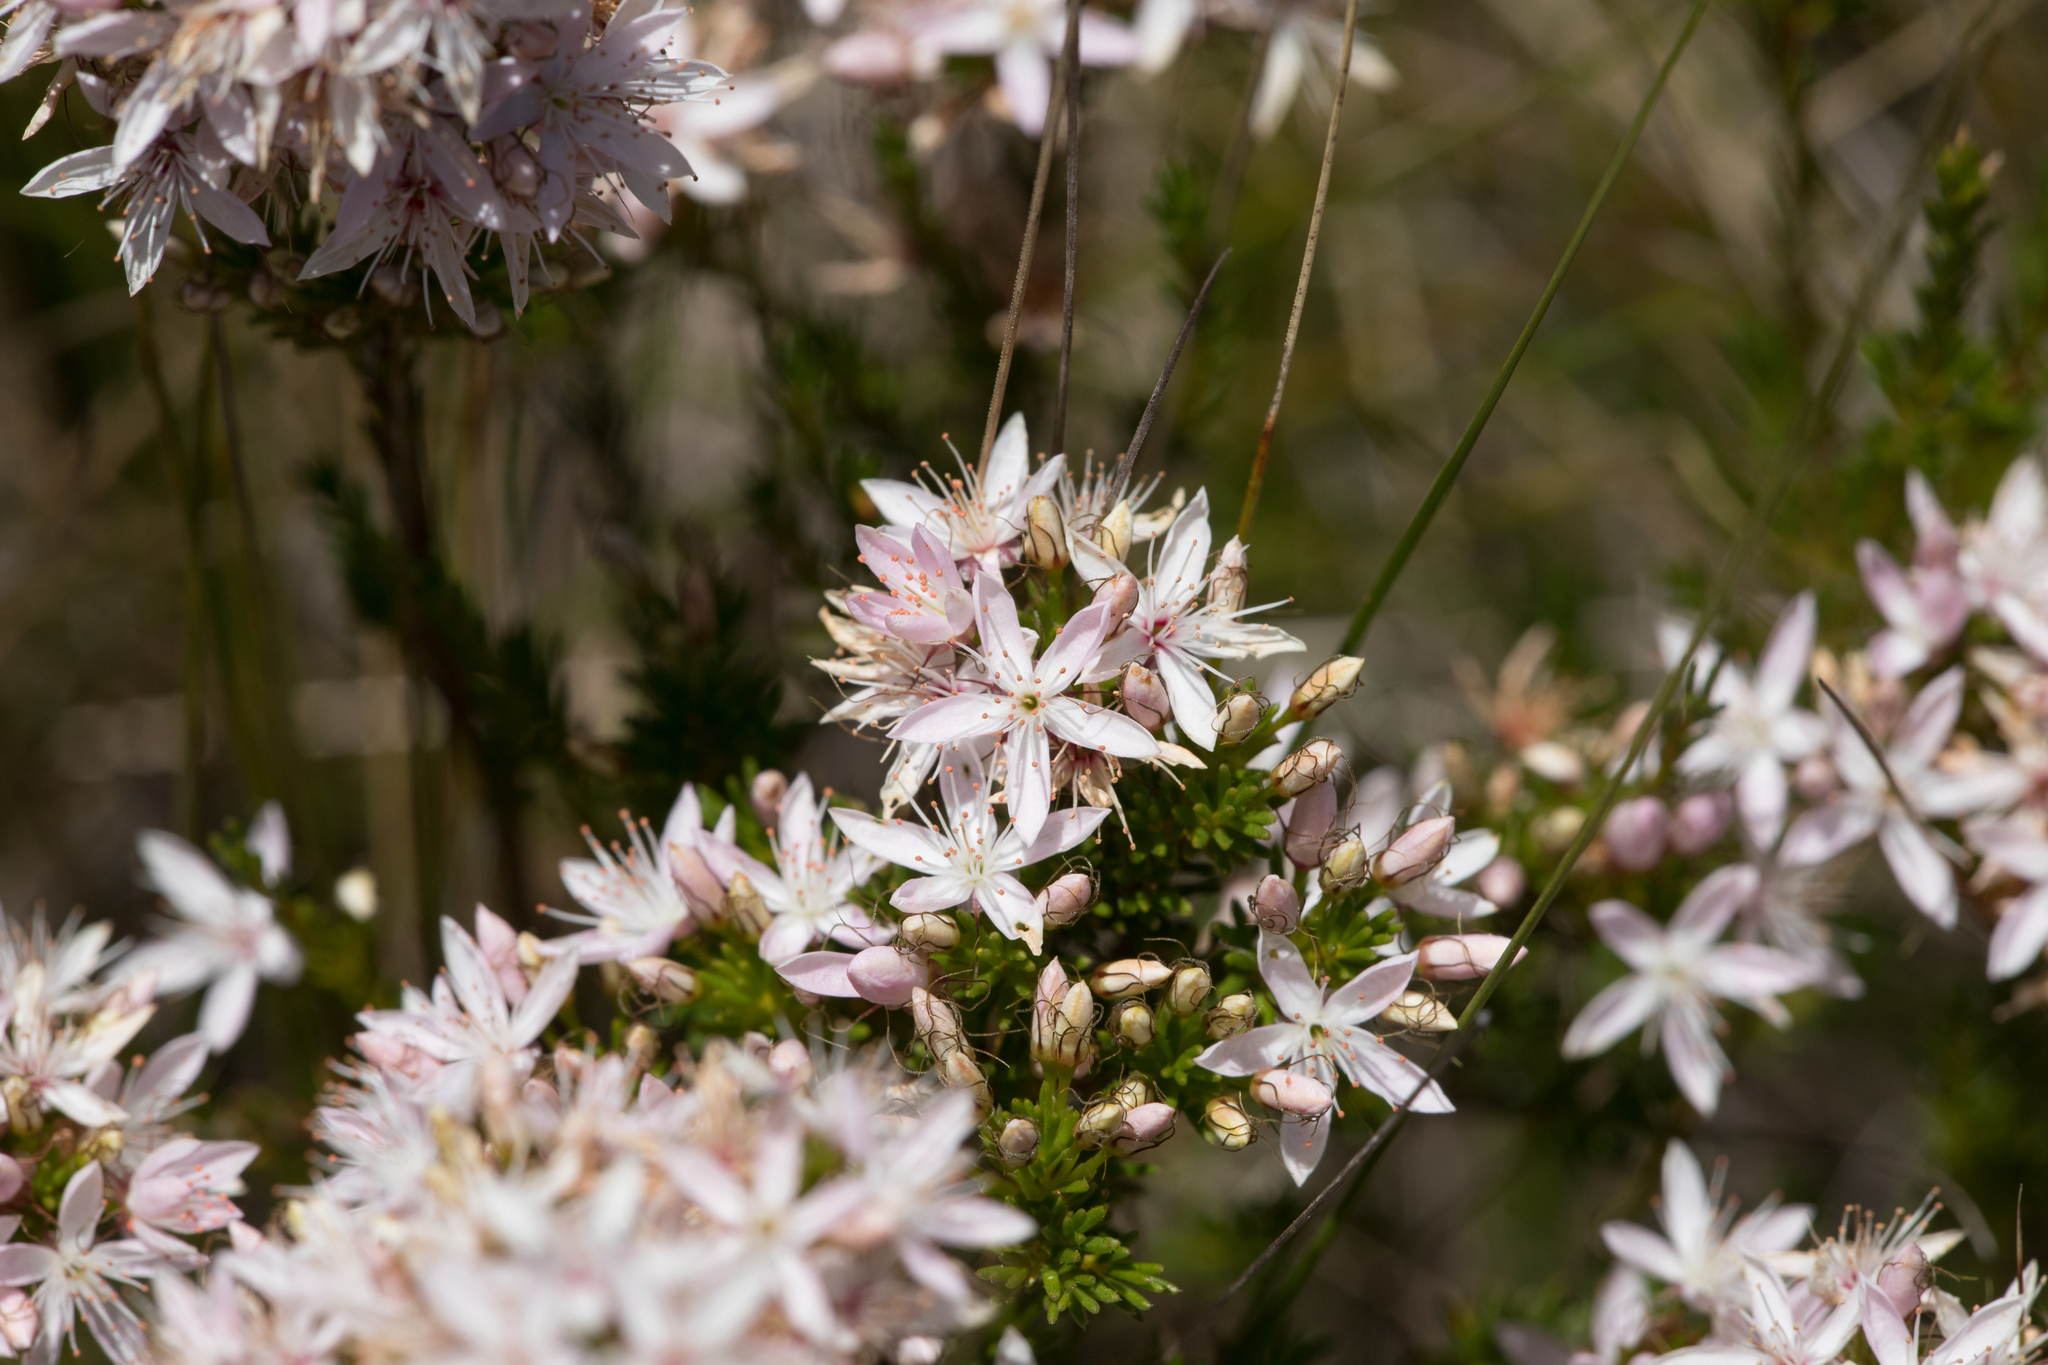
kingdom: Plantae
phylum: Tracheophyta
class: Magnoliopsida
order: Myrtales
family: Myrtaceae
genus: Calytrix
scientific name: Calytrix tetragona
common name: Common fringe myrtle
